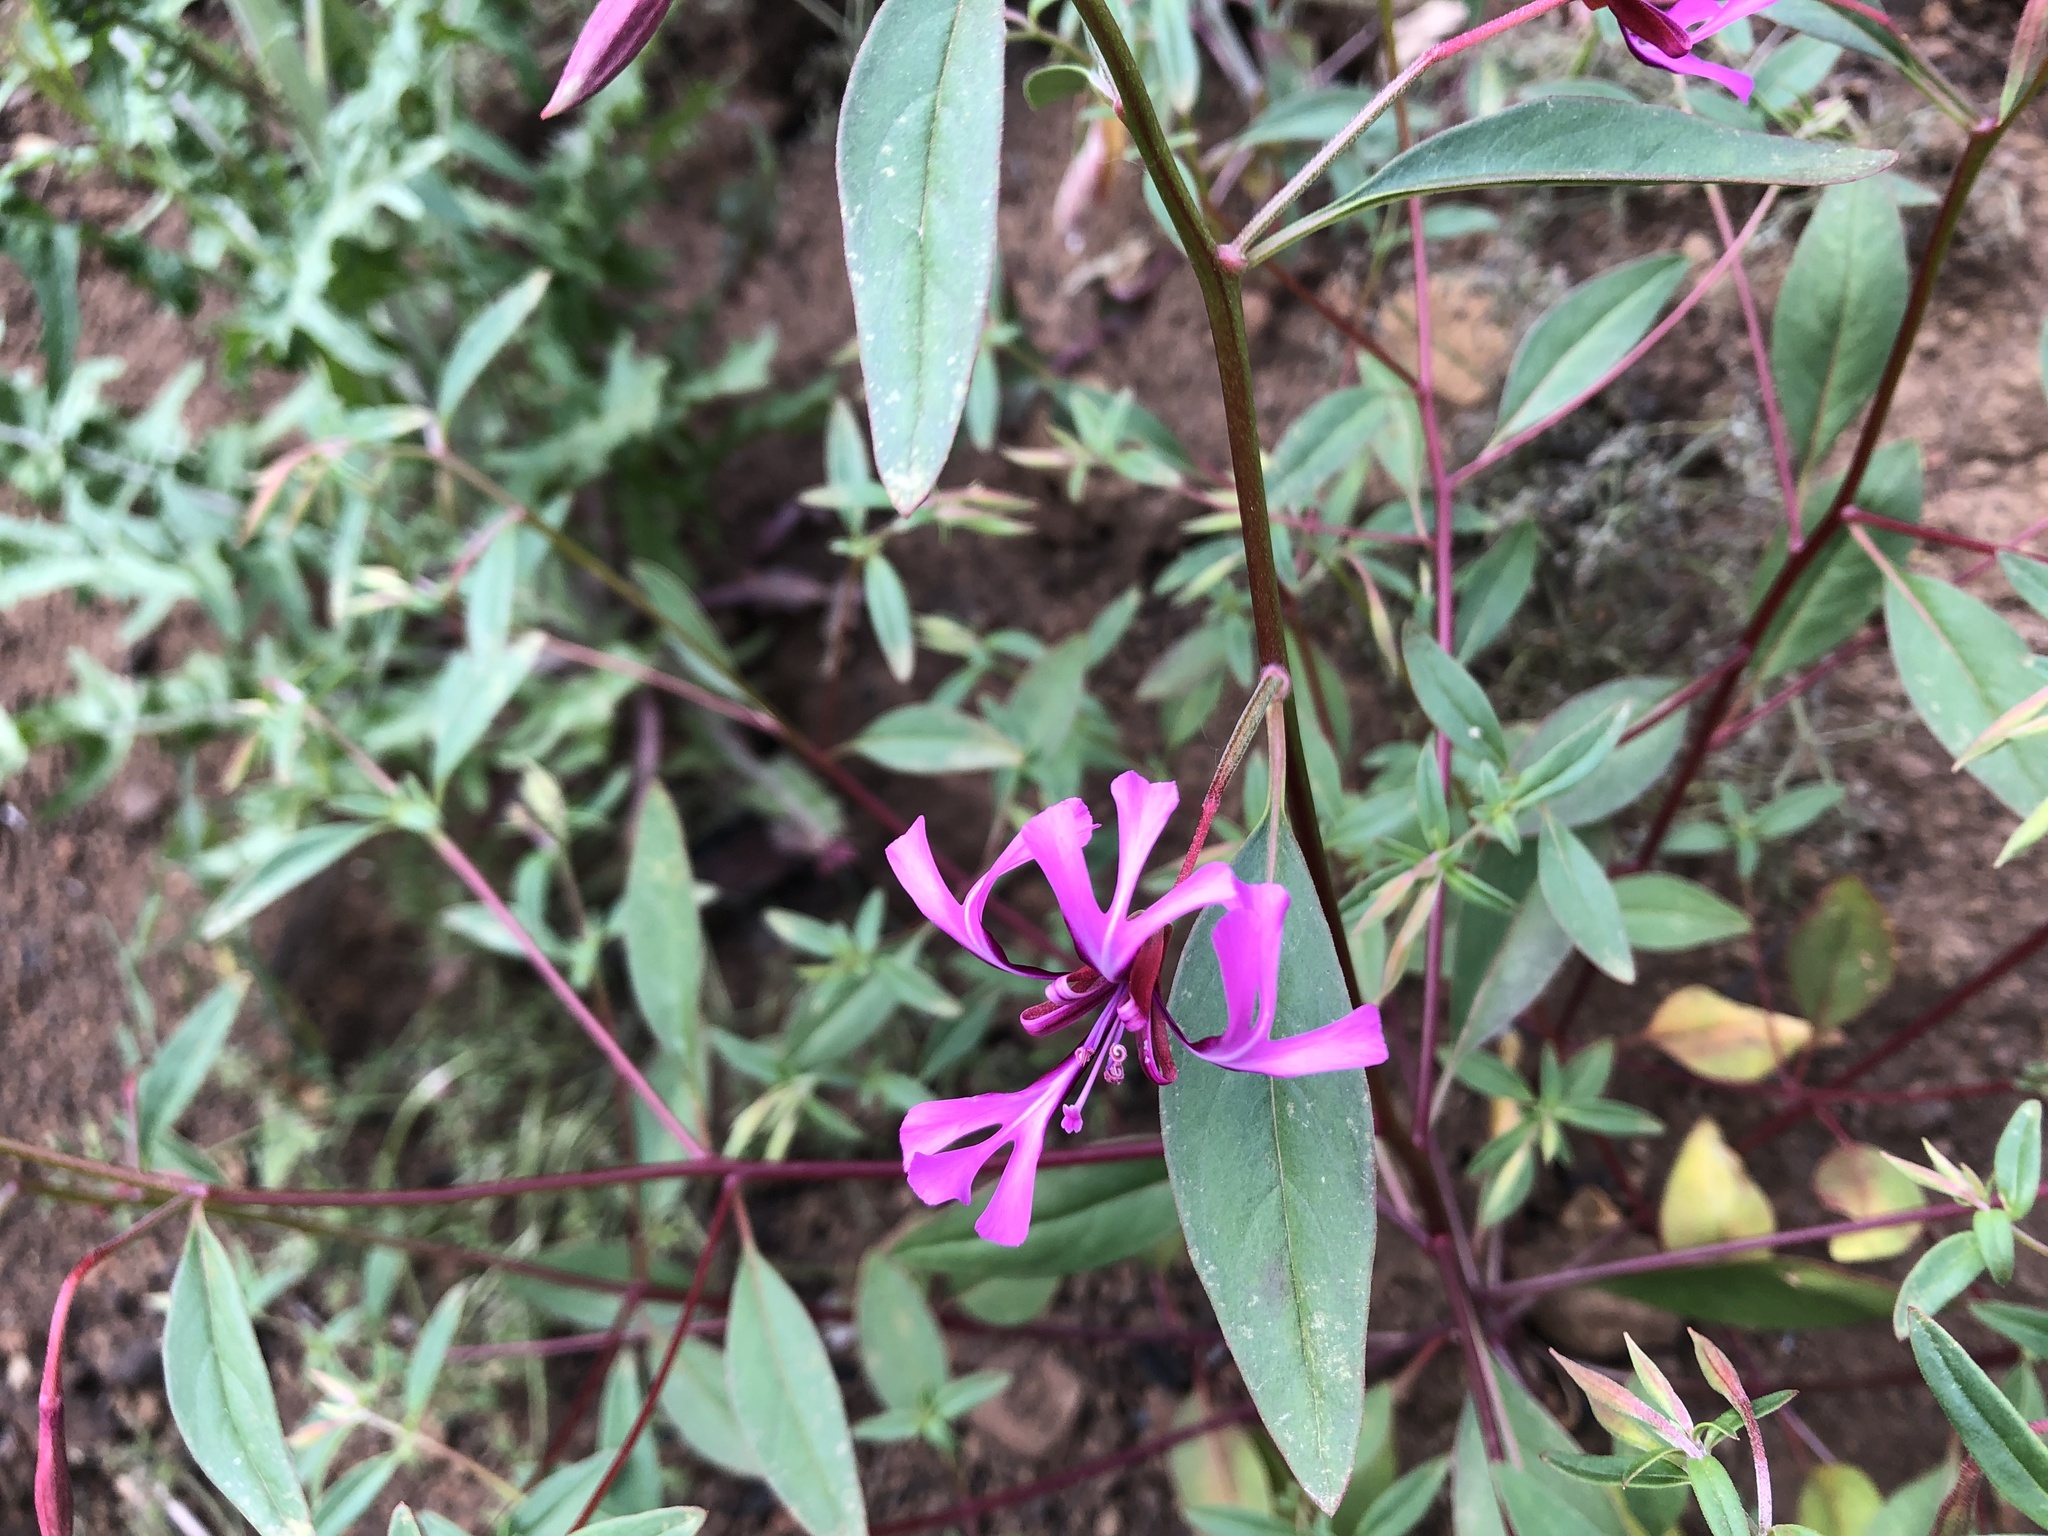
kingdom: Plantae
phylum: Tracheophyta
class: Magnoliopsida
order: Myrtales
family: Onagraceae
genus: Clarkia
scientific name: Clarkia concinna
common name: Red-ribbons
